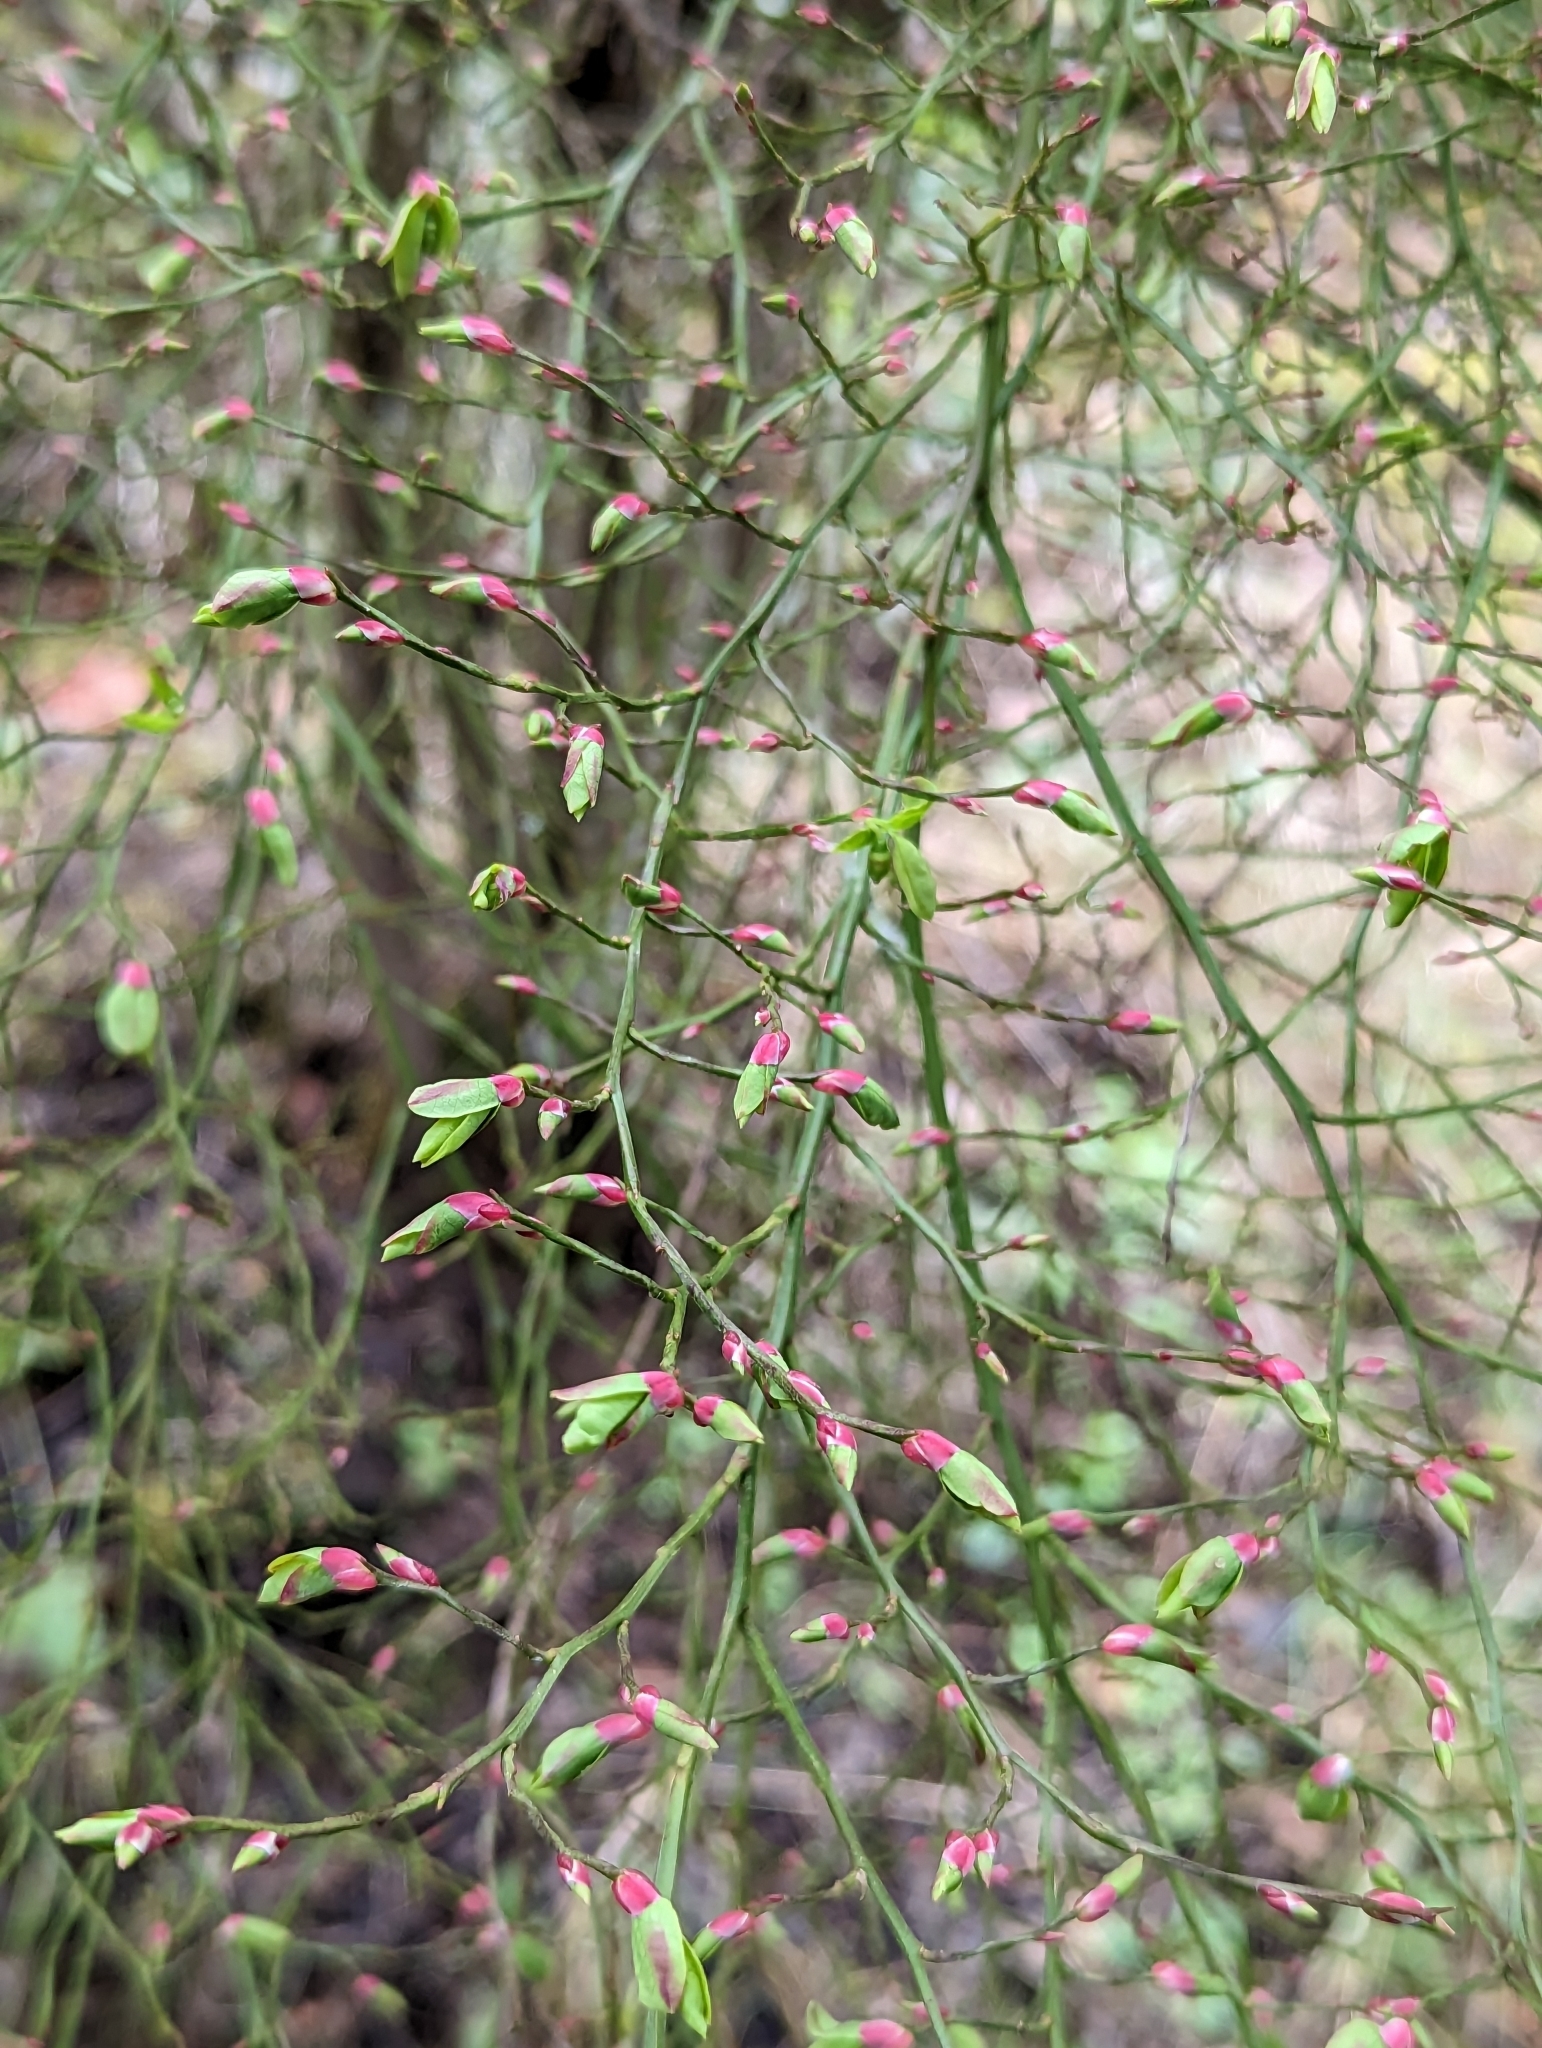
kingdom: Plantae
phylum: Tracheophyta
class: Magnoliopsida
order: Ericales
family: Ericaceae
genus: Vaccinium
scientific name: Vaccinium parvifolium
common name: Red-huckleberry
